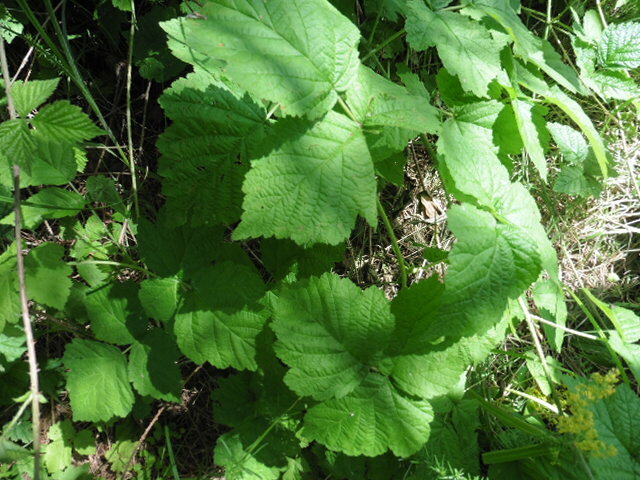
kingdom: Plantae
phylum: Tracheophyta
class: Magnoliopsida
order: Rosales
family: Rosaceae
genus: Rubus
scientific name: Rubus caesius
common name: Dewberry
